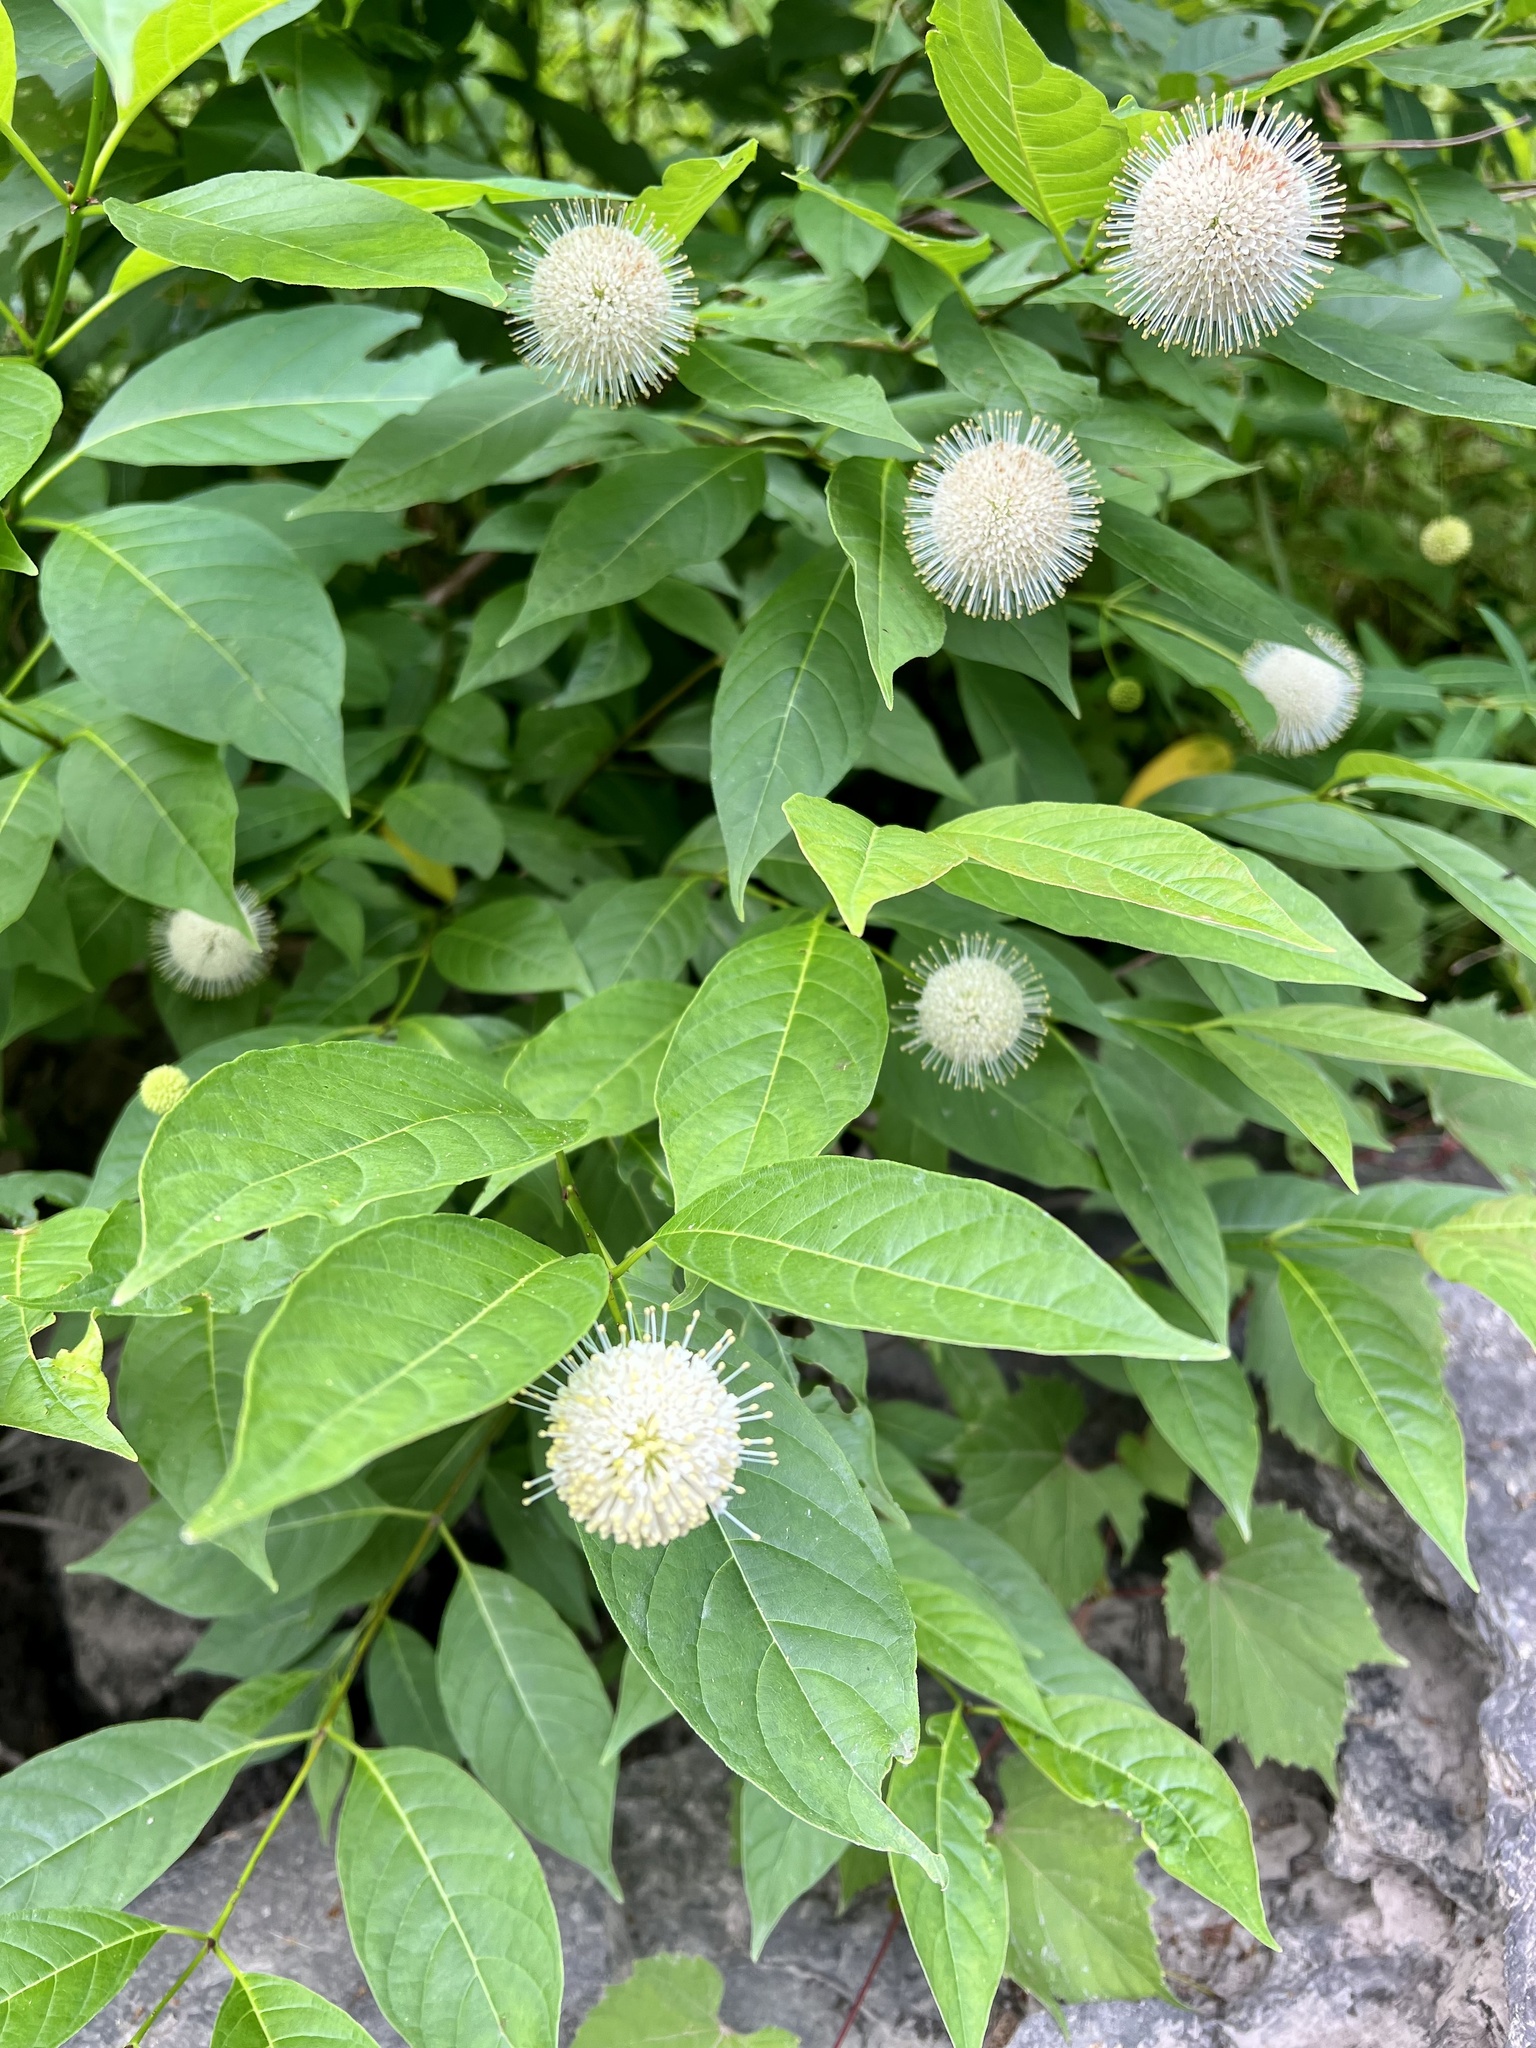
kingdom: Plantae
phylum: Tracheophyta
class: Magnoliopsida
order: Gentianales
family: Rubiaceae
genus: Cephalanthus
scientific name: Cephalanthus occidentalis
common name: Button-willow
